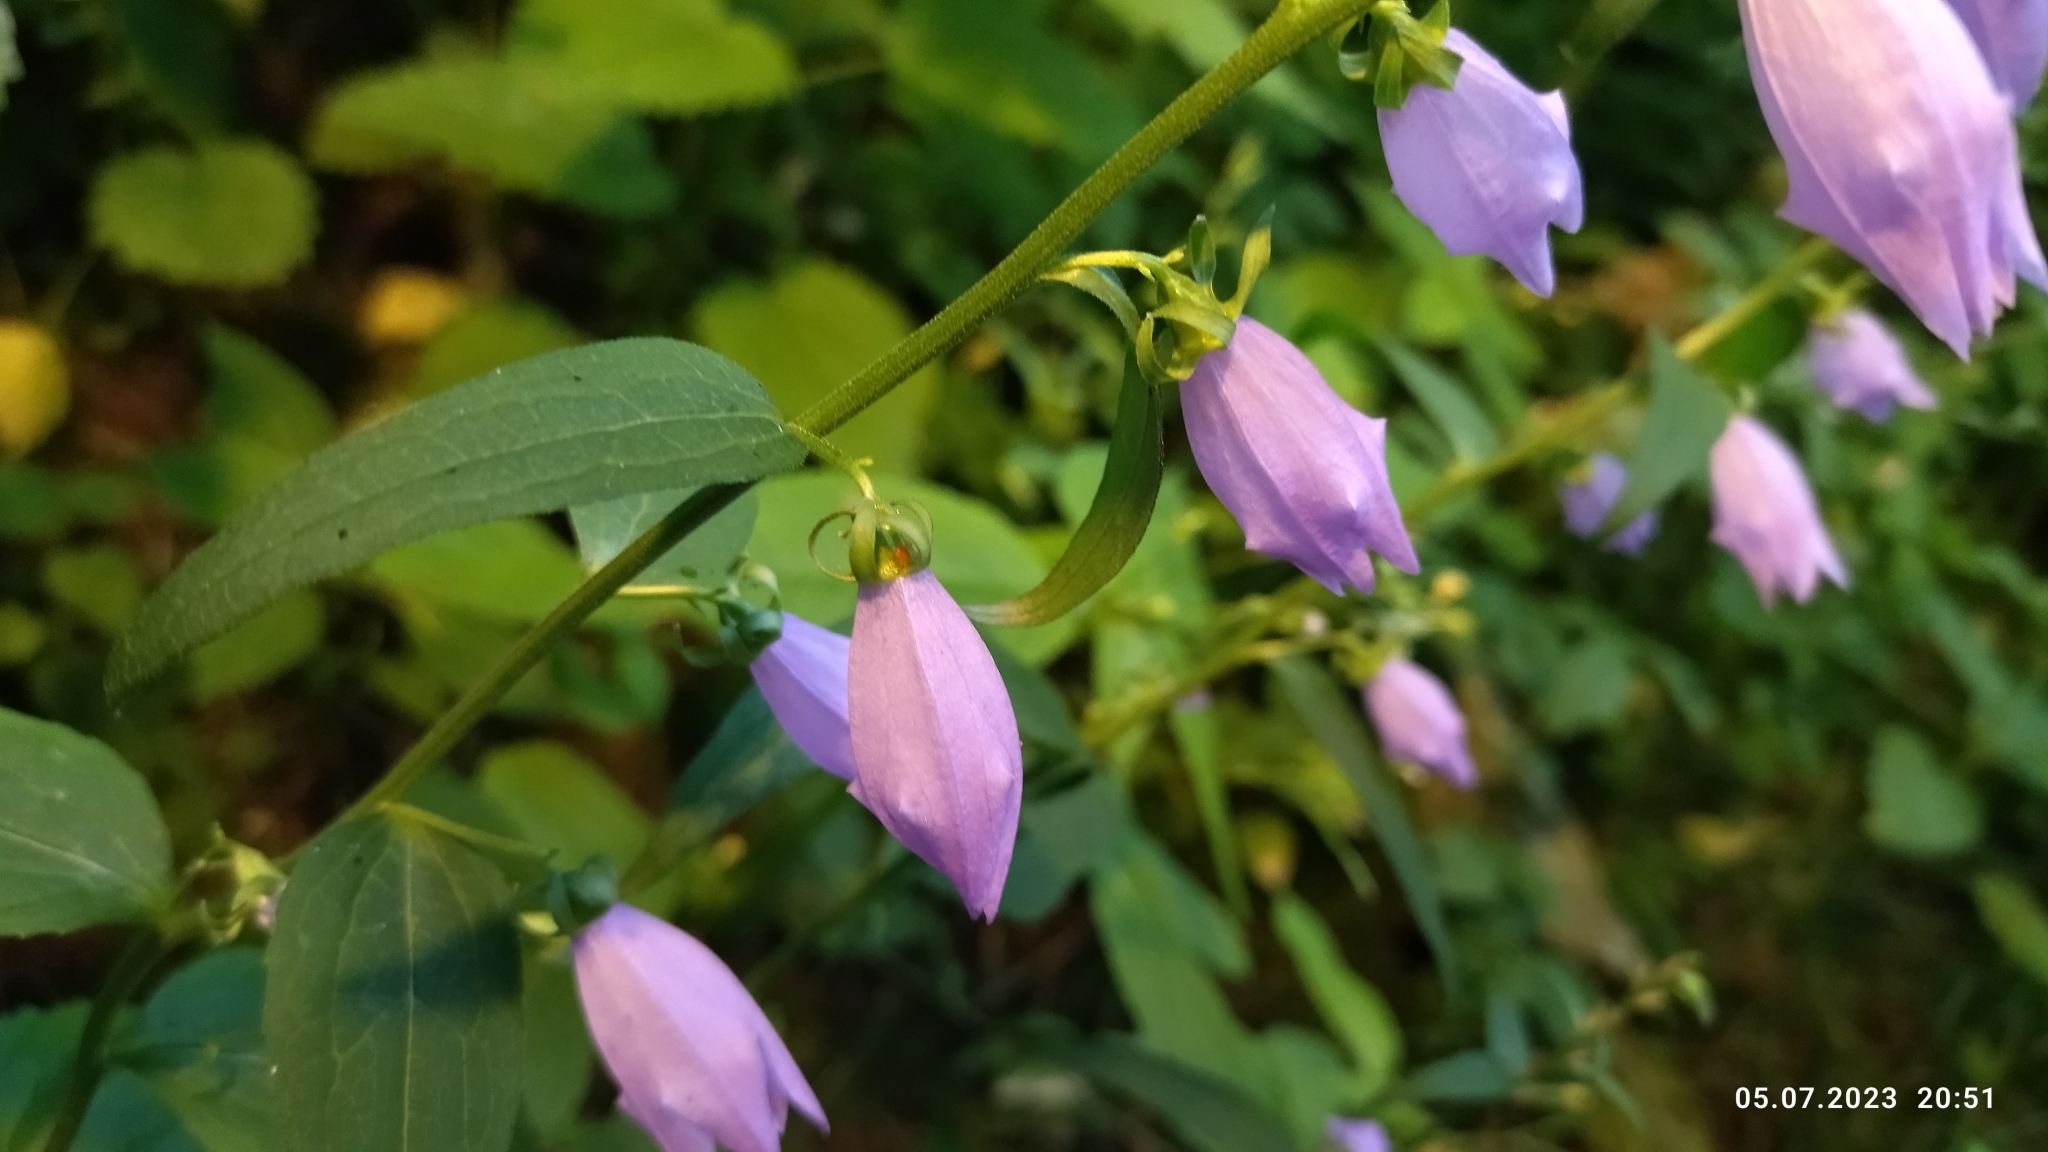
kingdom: Plantae
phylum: Tracheophyta
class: Magnoliopsida
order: Asterales
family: Campanulaceae
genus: Campanula
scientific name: Campanula rapunculoides
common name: Creeping bellflower
